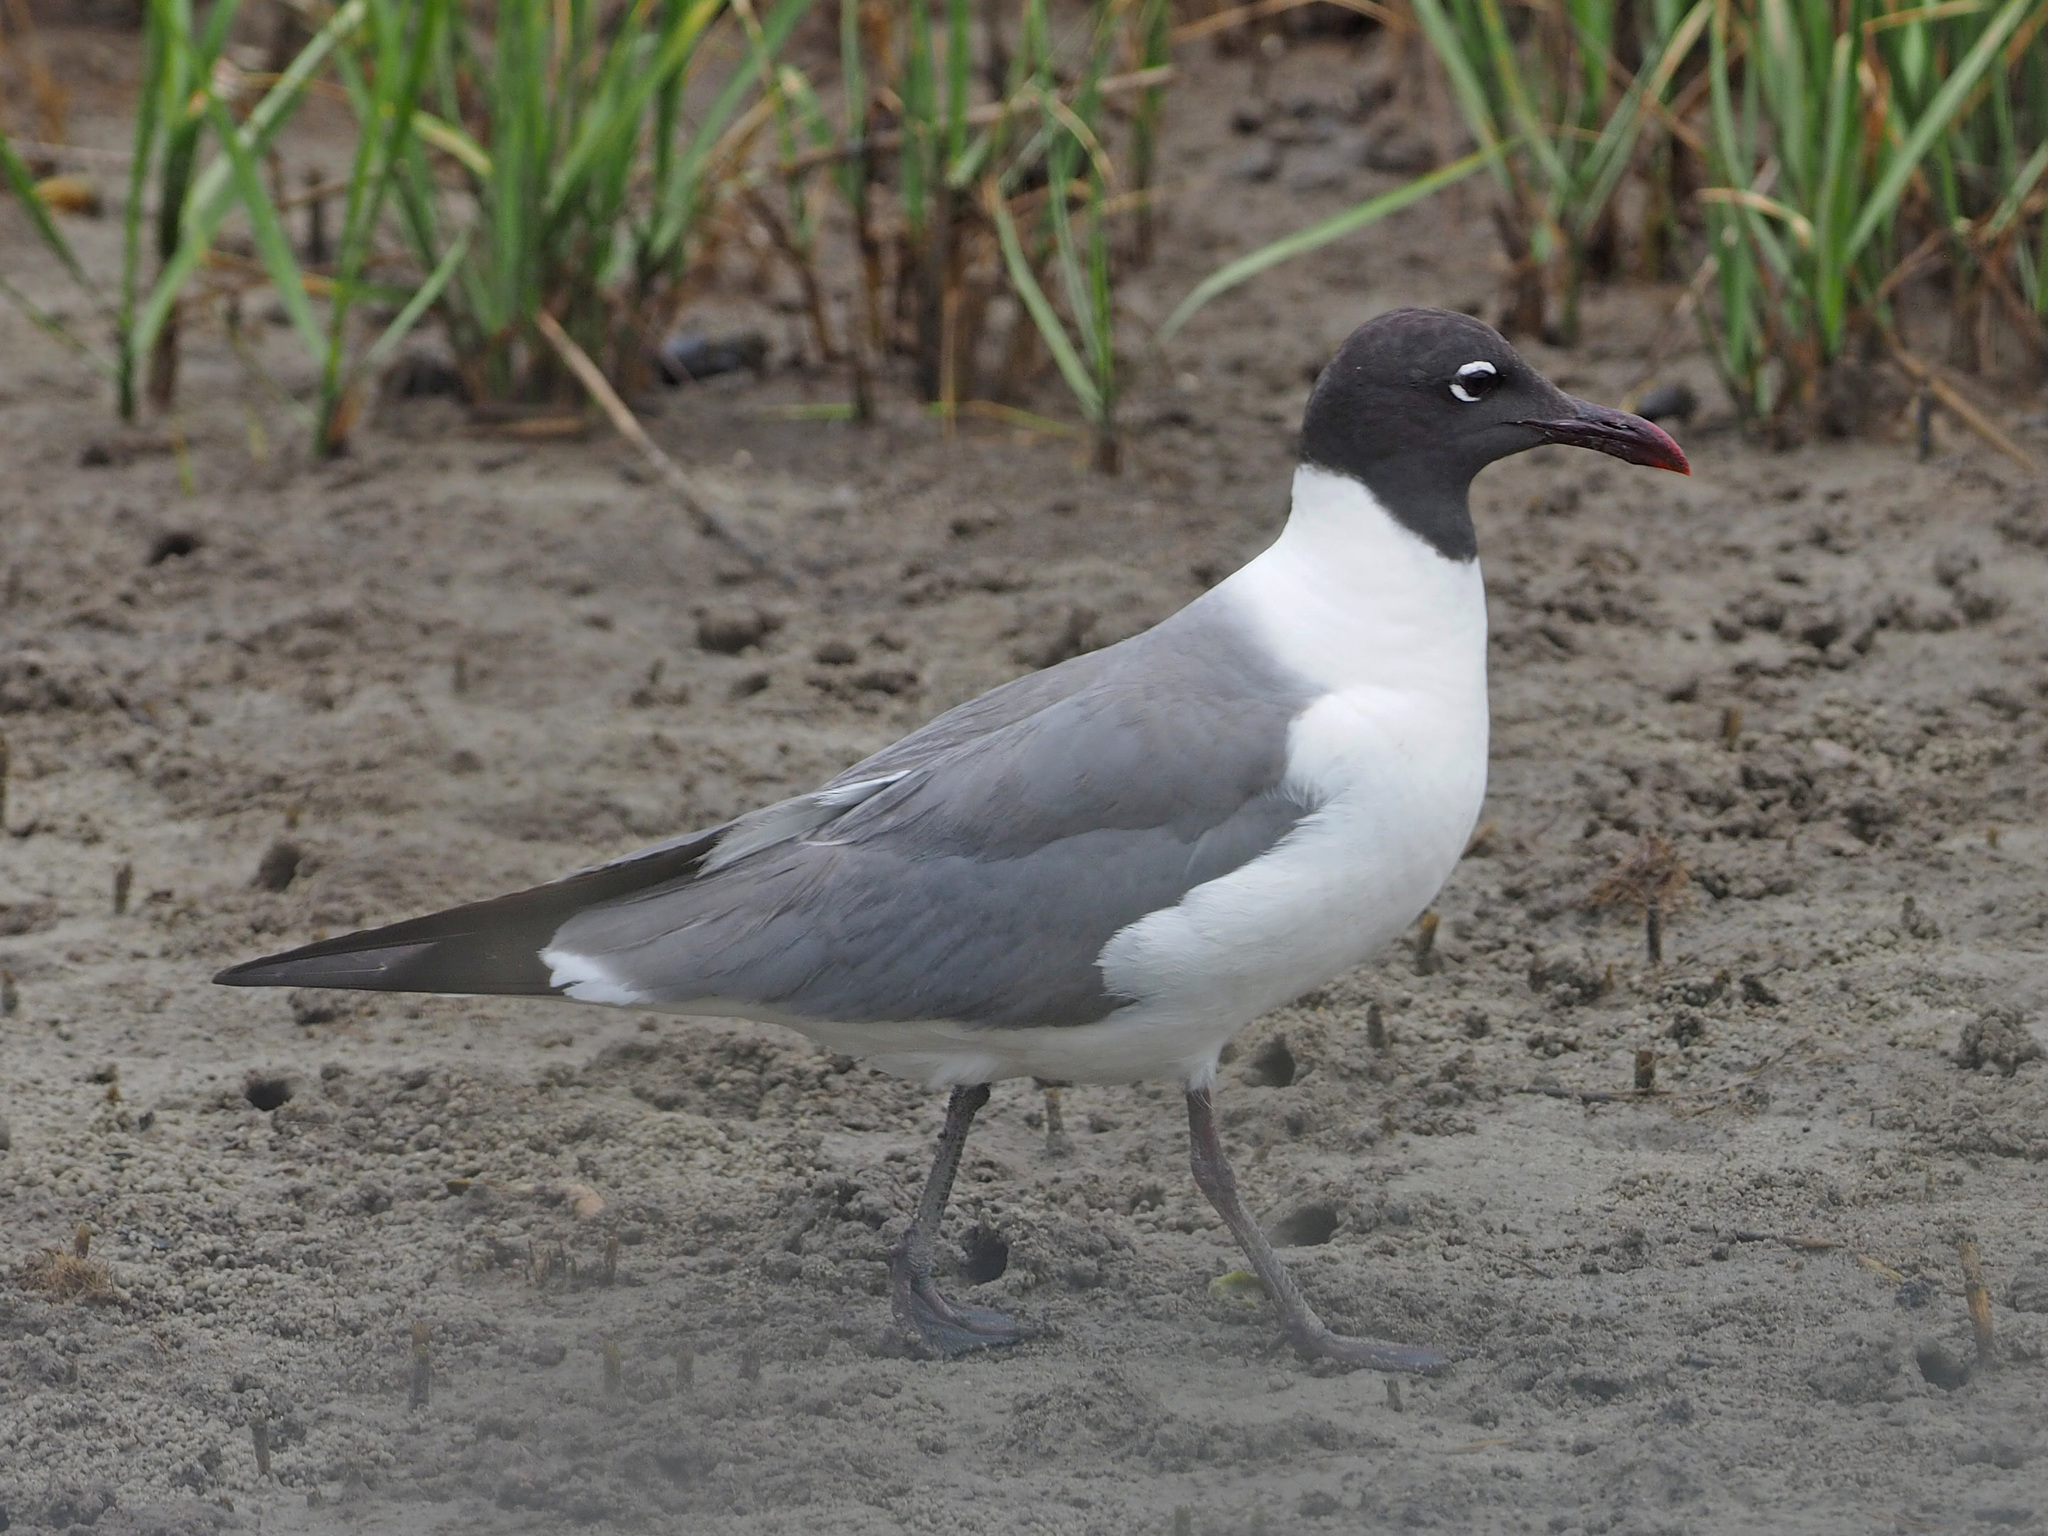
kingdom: Animalia
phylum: Chordata
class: Aves
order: Charadriiformes
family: Laridae
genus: Leucophaeus
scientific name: Leucophaeus atricilla
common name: Laughing gull
